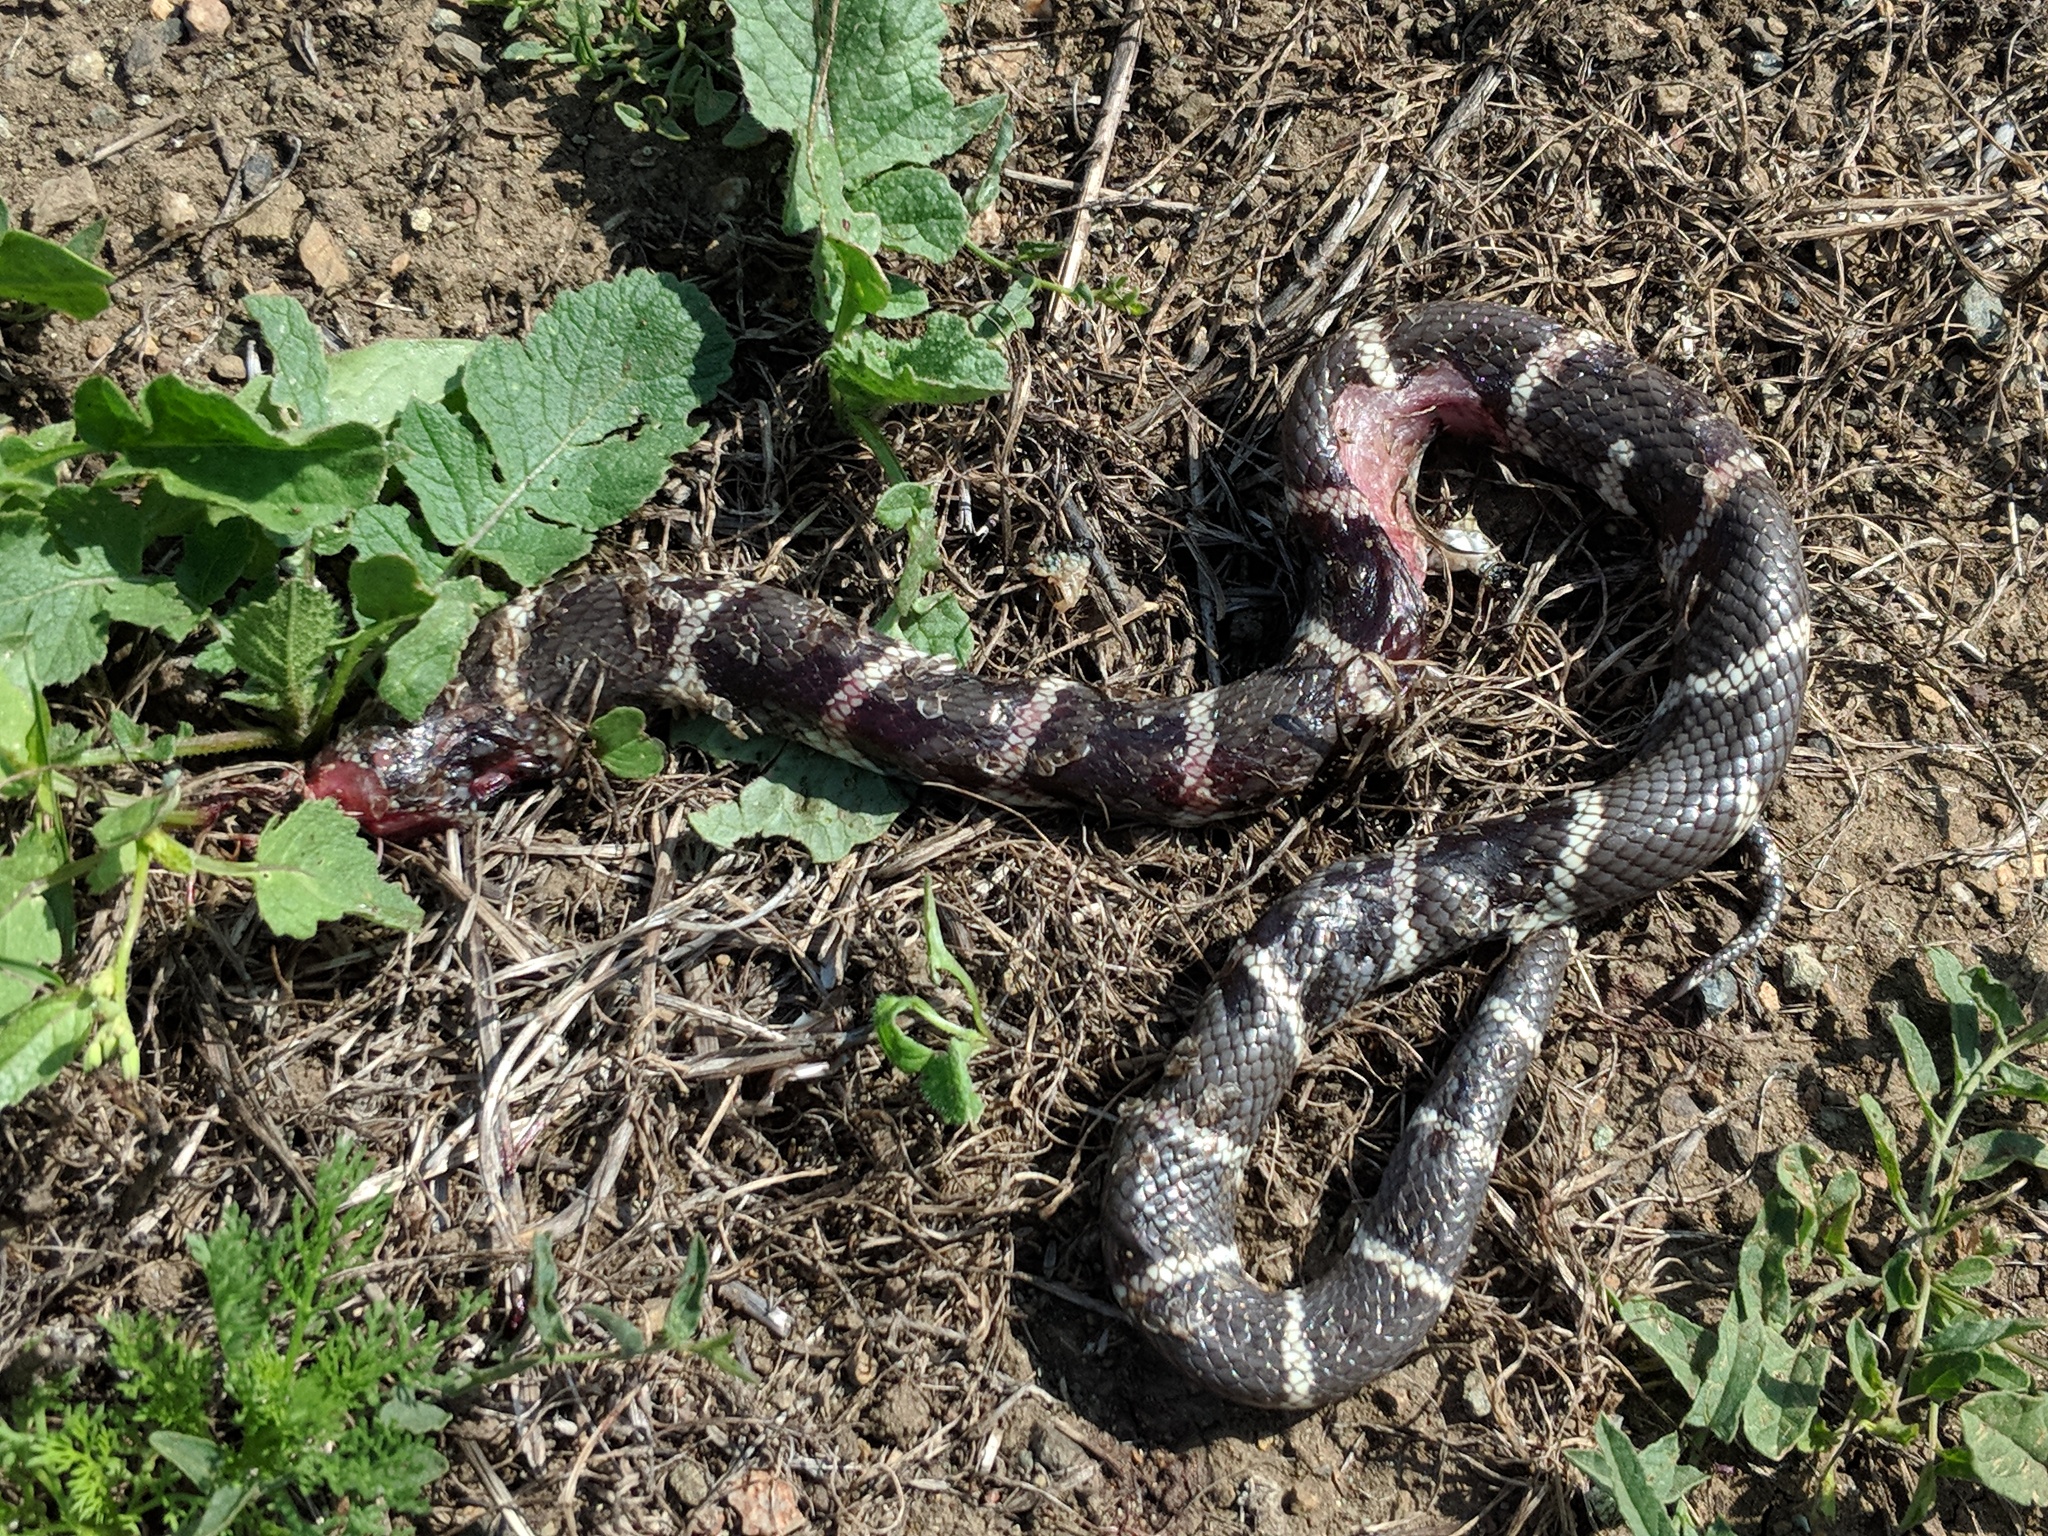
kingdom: Animalia
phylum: Chordata
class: Squamata
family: Colubridae
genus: Lampropeltis
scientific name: Lampropeltis californiae
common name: California kingsnake
